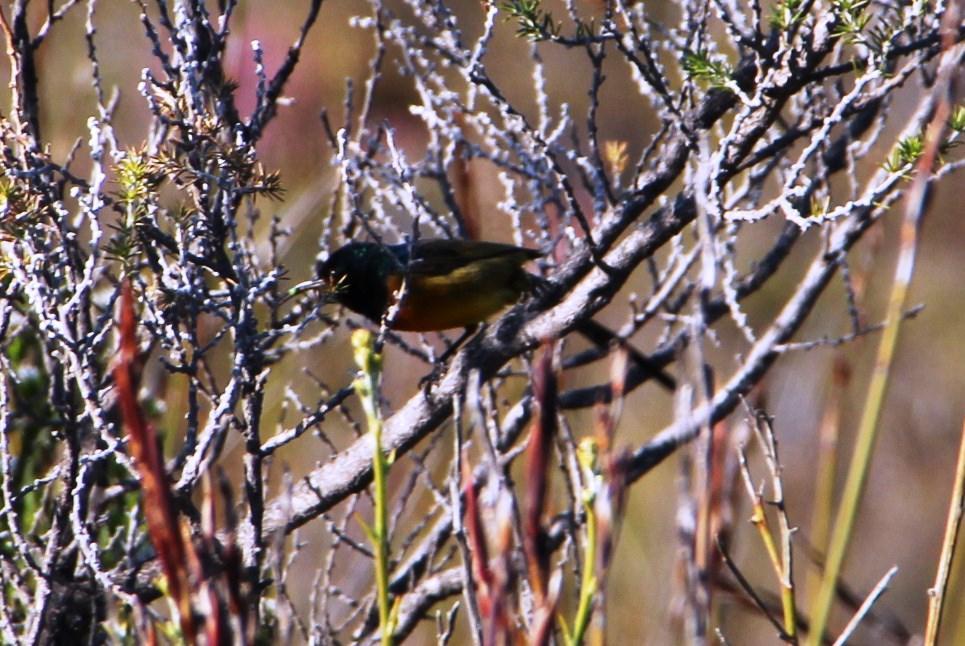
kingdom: Animalia
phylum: Chordata
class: Aves
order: Passeriformes
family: Nectariniidae
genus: Anthobaphes
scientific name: Anthobaphes violacea
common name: Orange-breasted sunbird
